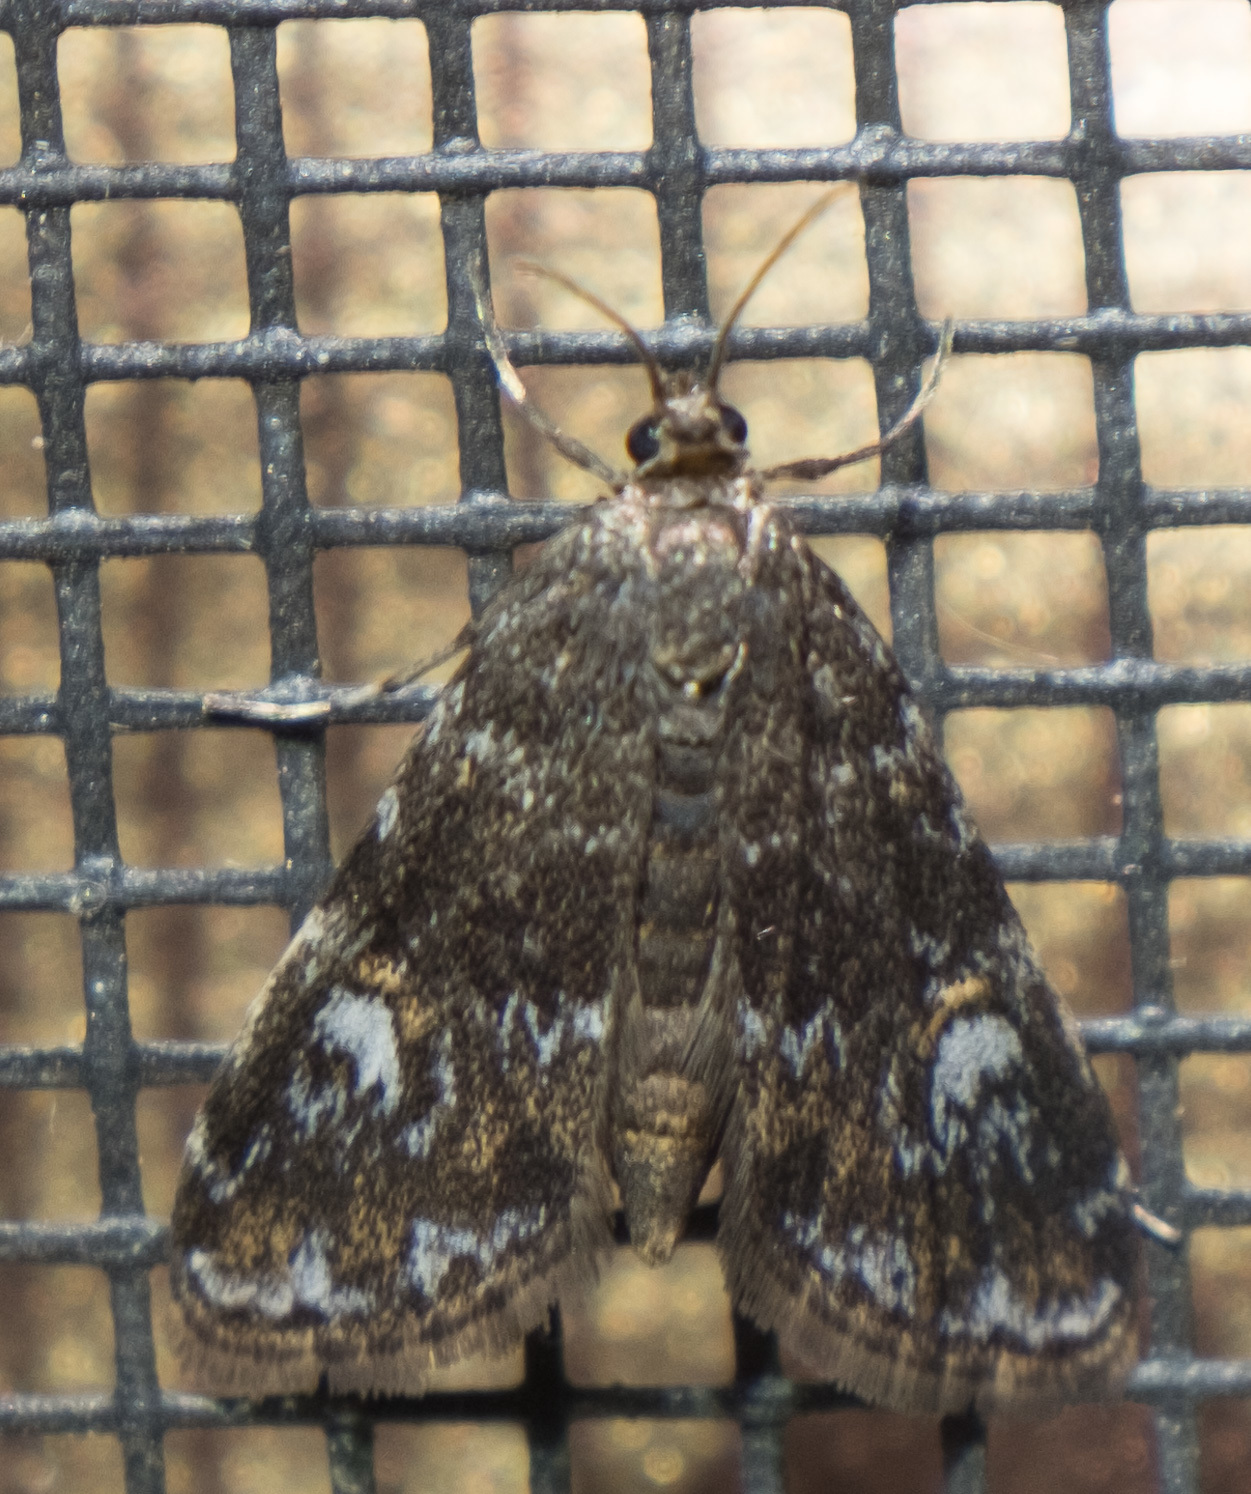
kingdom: Animalia
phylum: Arthropoda
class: Insecta
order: Lepidoptera
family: Crambidae
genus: Elophila
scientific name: Elophila obliteralis
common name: Waterlily leafcutter moth
